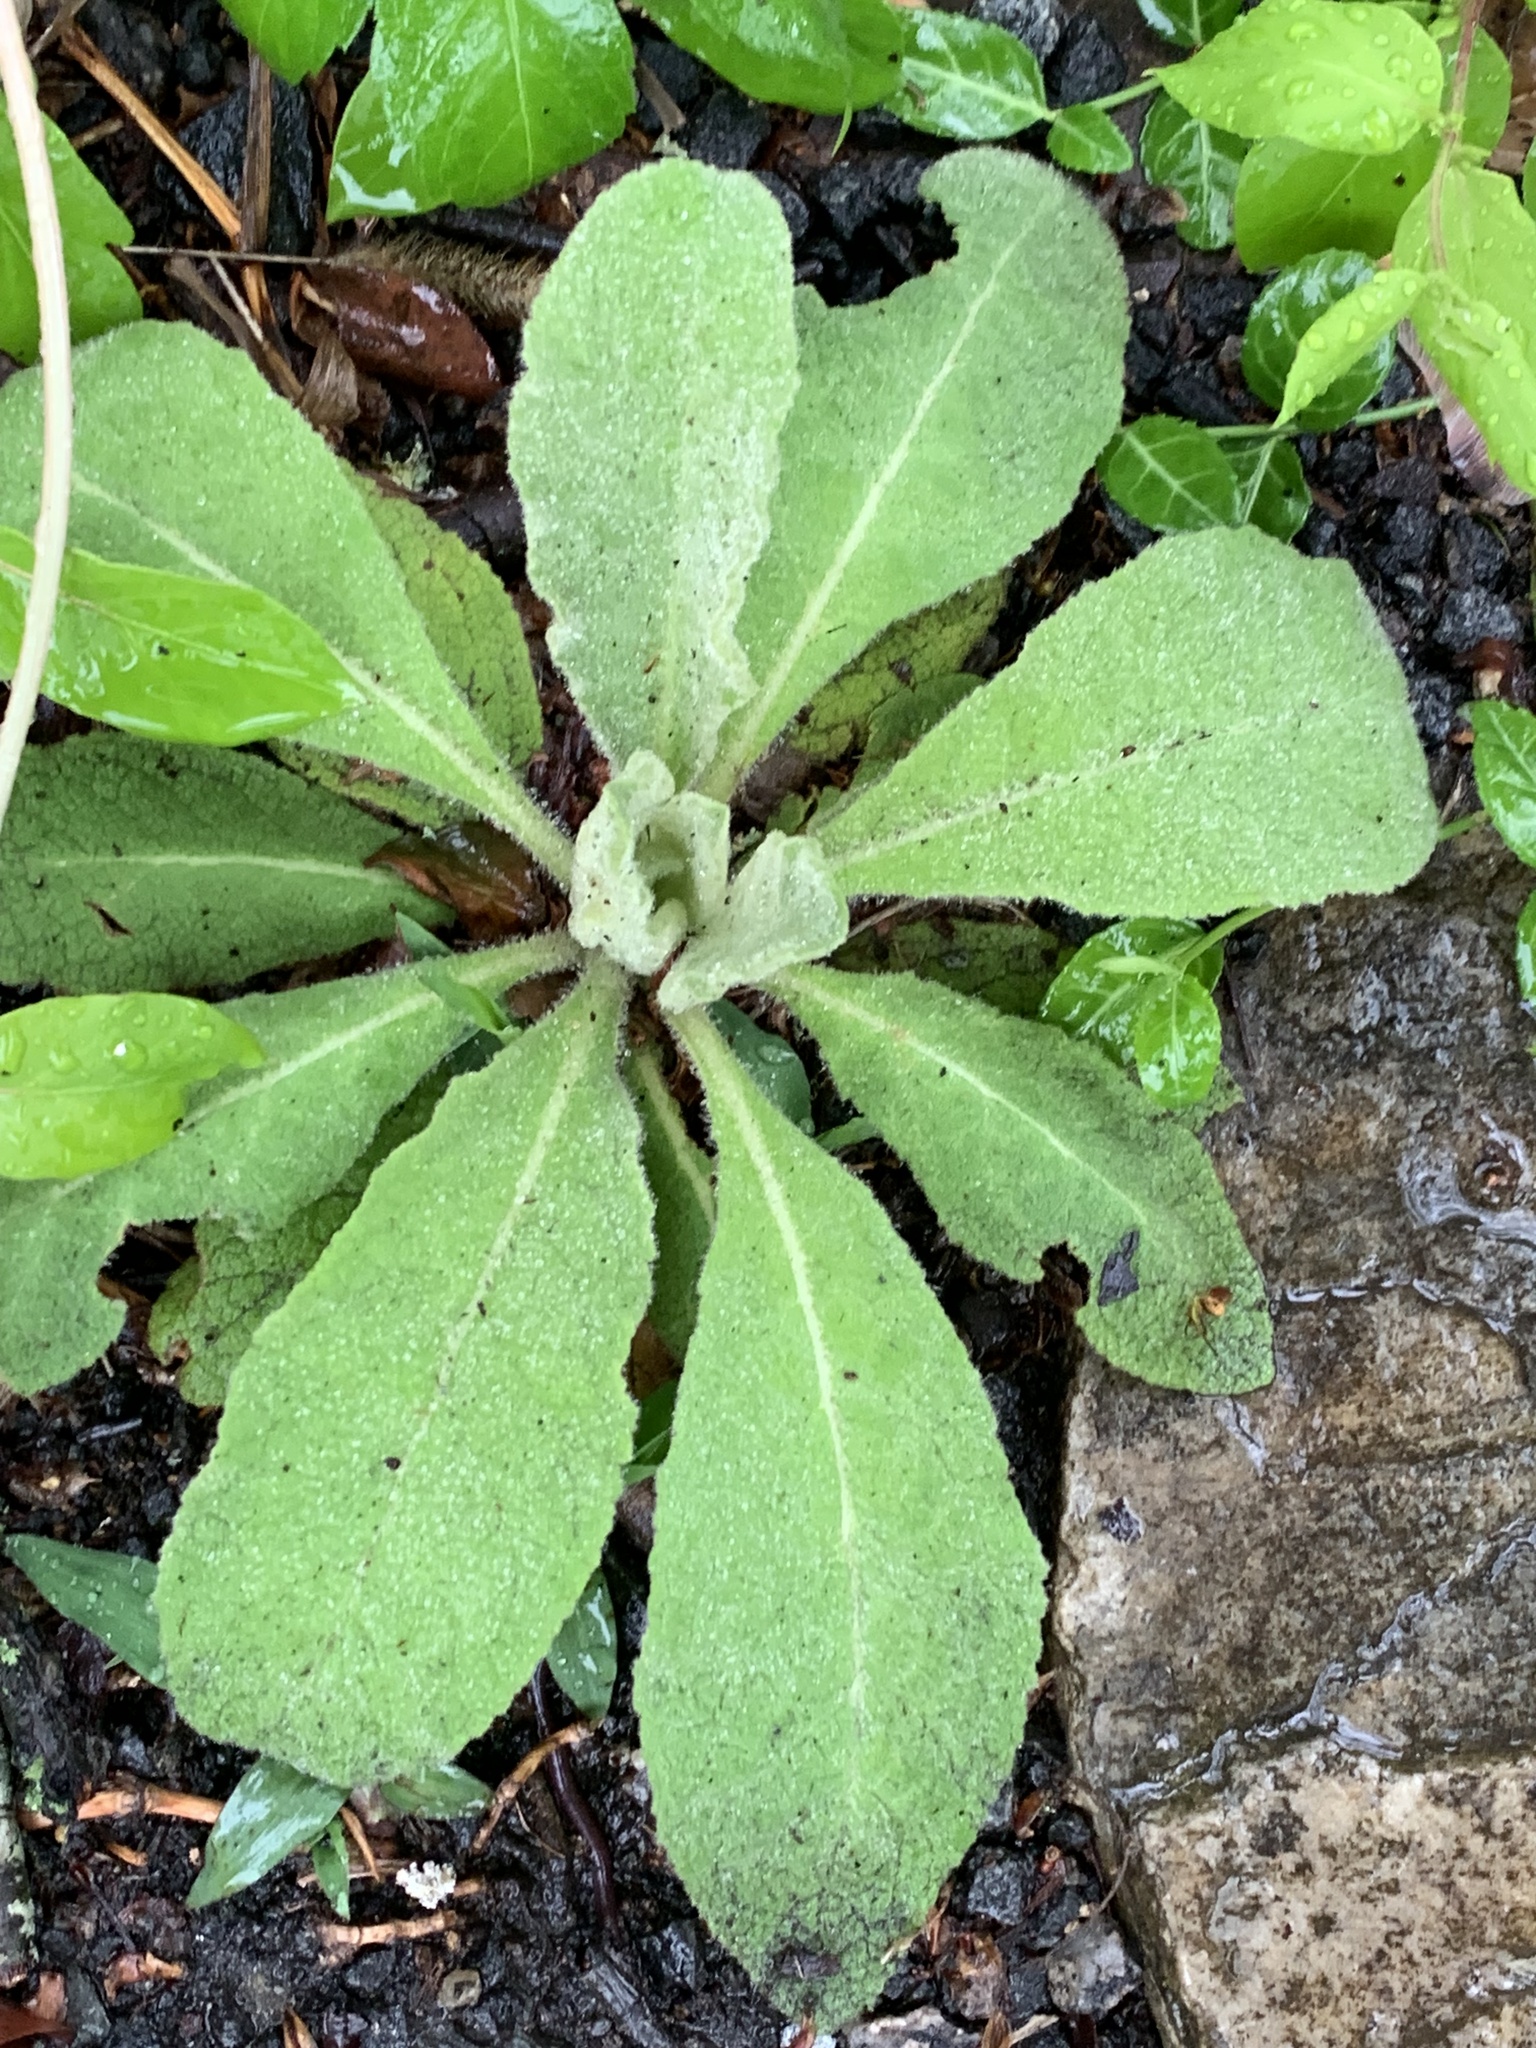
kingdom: Plantae
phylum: Tracheophyta
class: Magnoliopsida
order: Lamiales
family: Scrophulariaceae
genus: Verbascum
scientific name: Verbascum thapsus
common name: Common mullein
